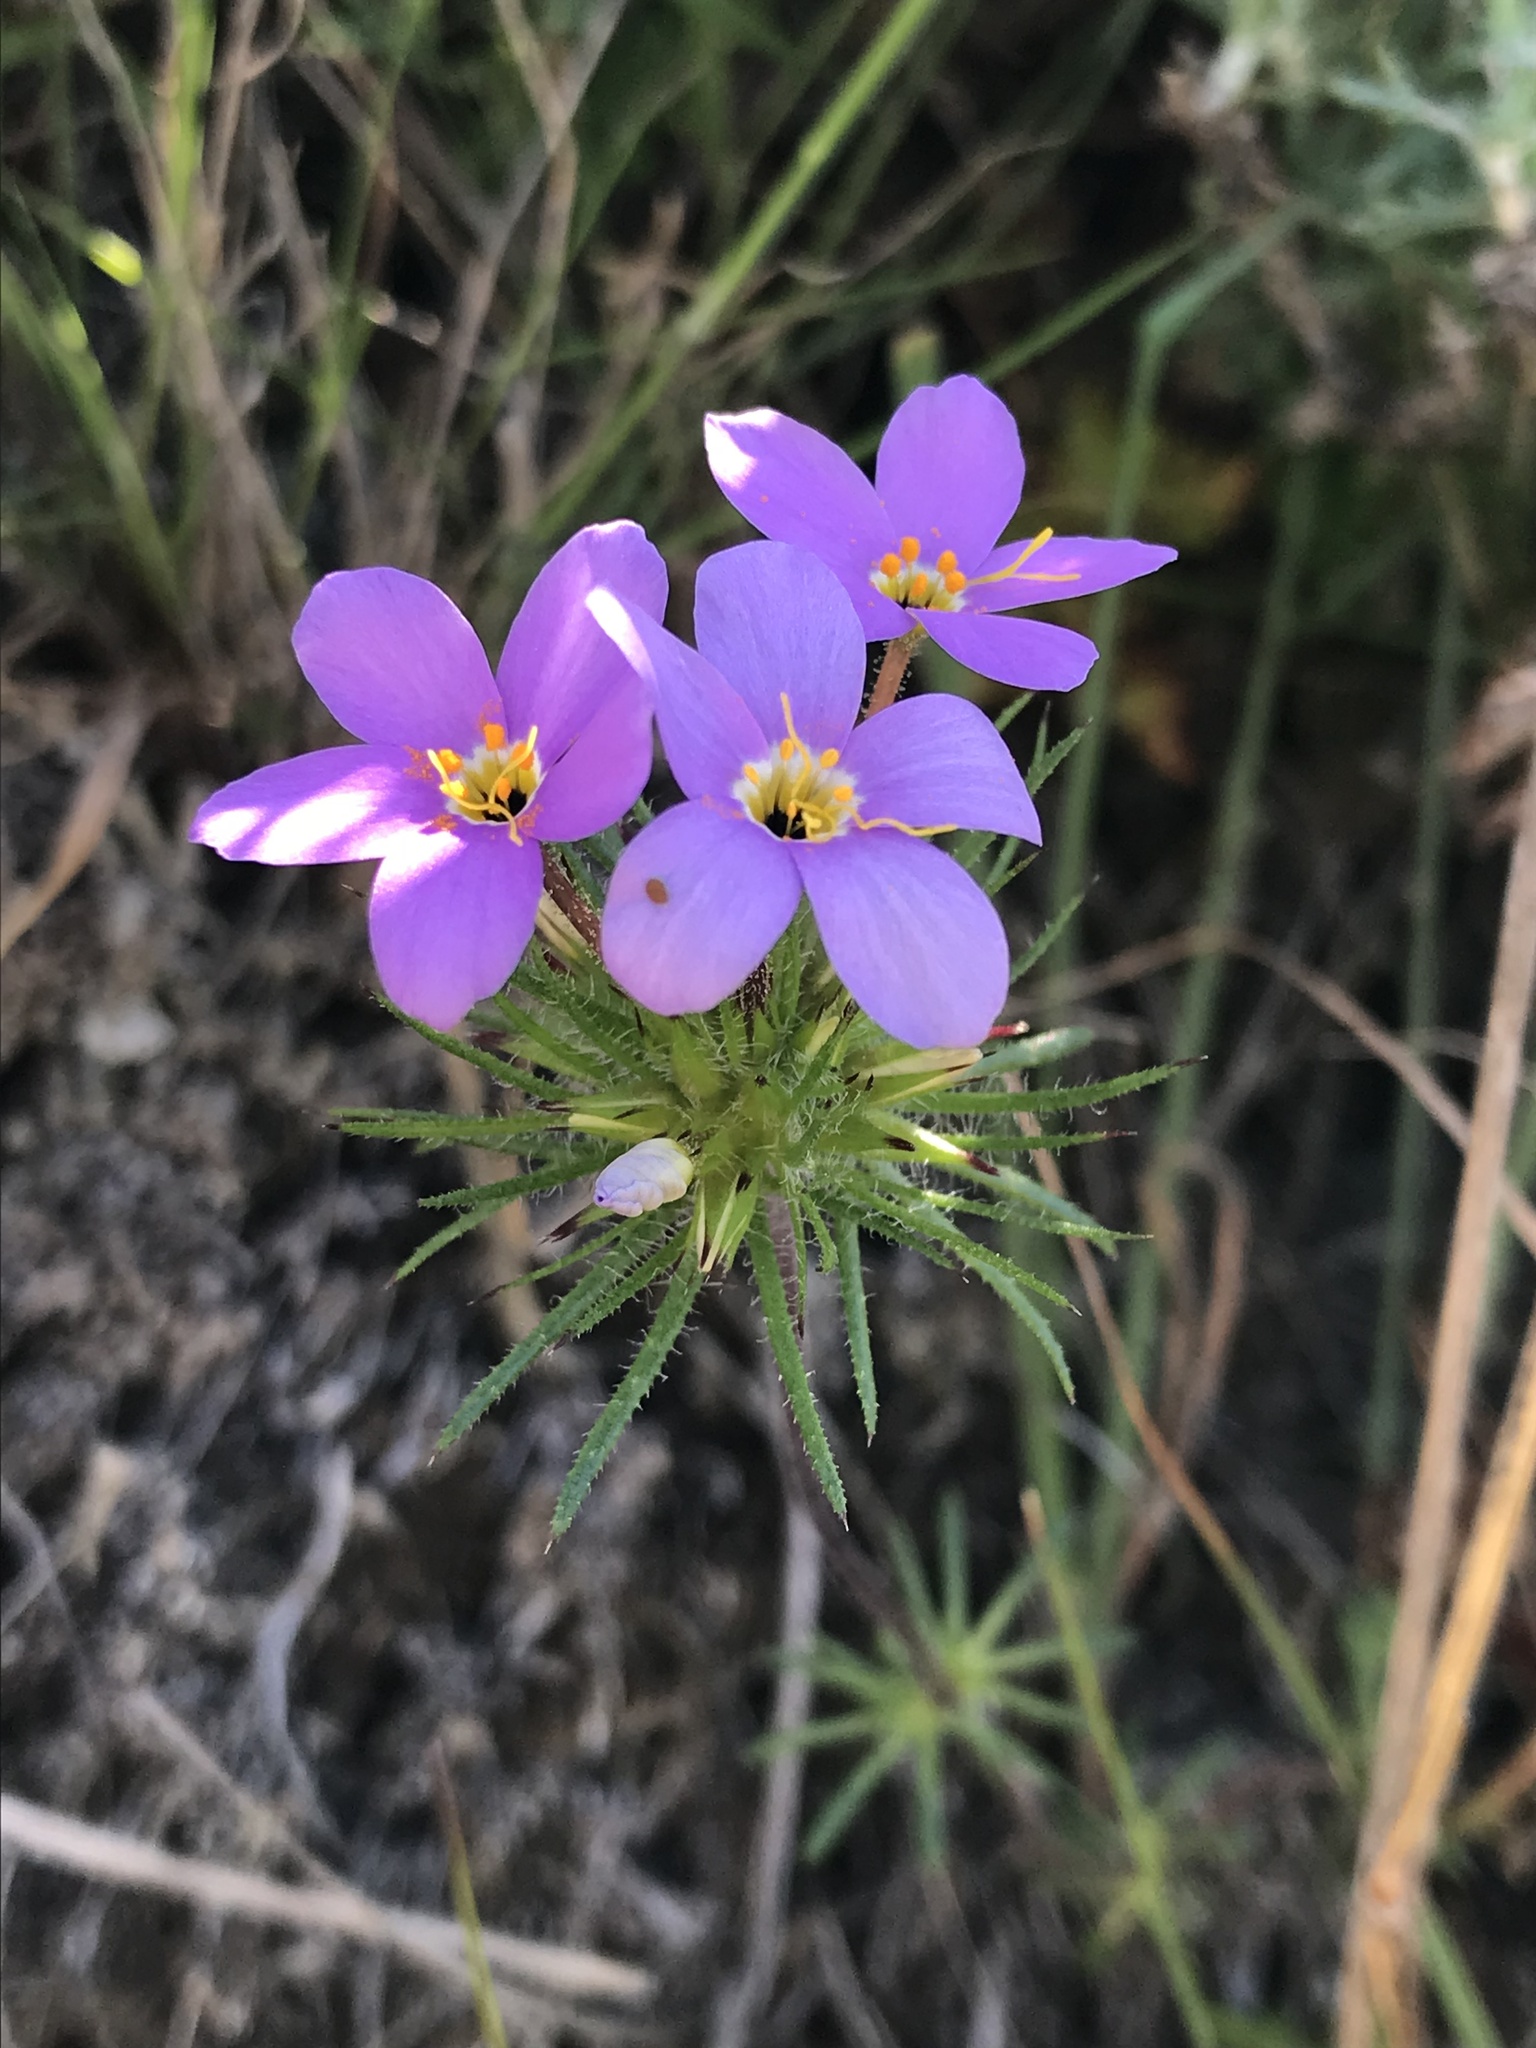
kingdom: Plantae
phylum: Tracheophyta
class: Magnoliopsida
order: Ericales
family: Polemoniaceae
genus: Leptosiphon
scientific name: Leptosiphon androsaceus
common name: False babystars
